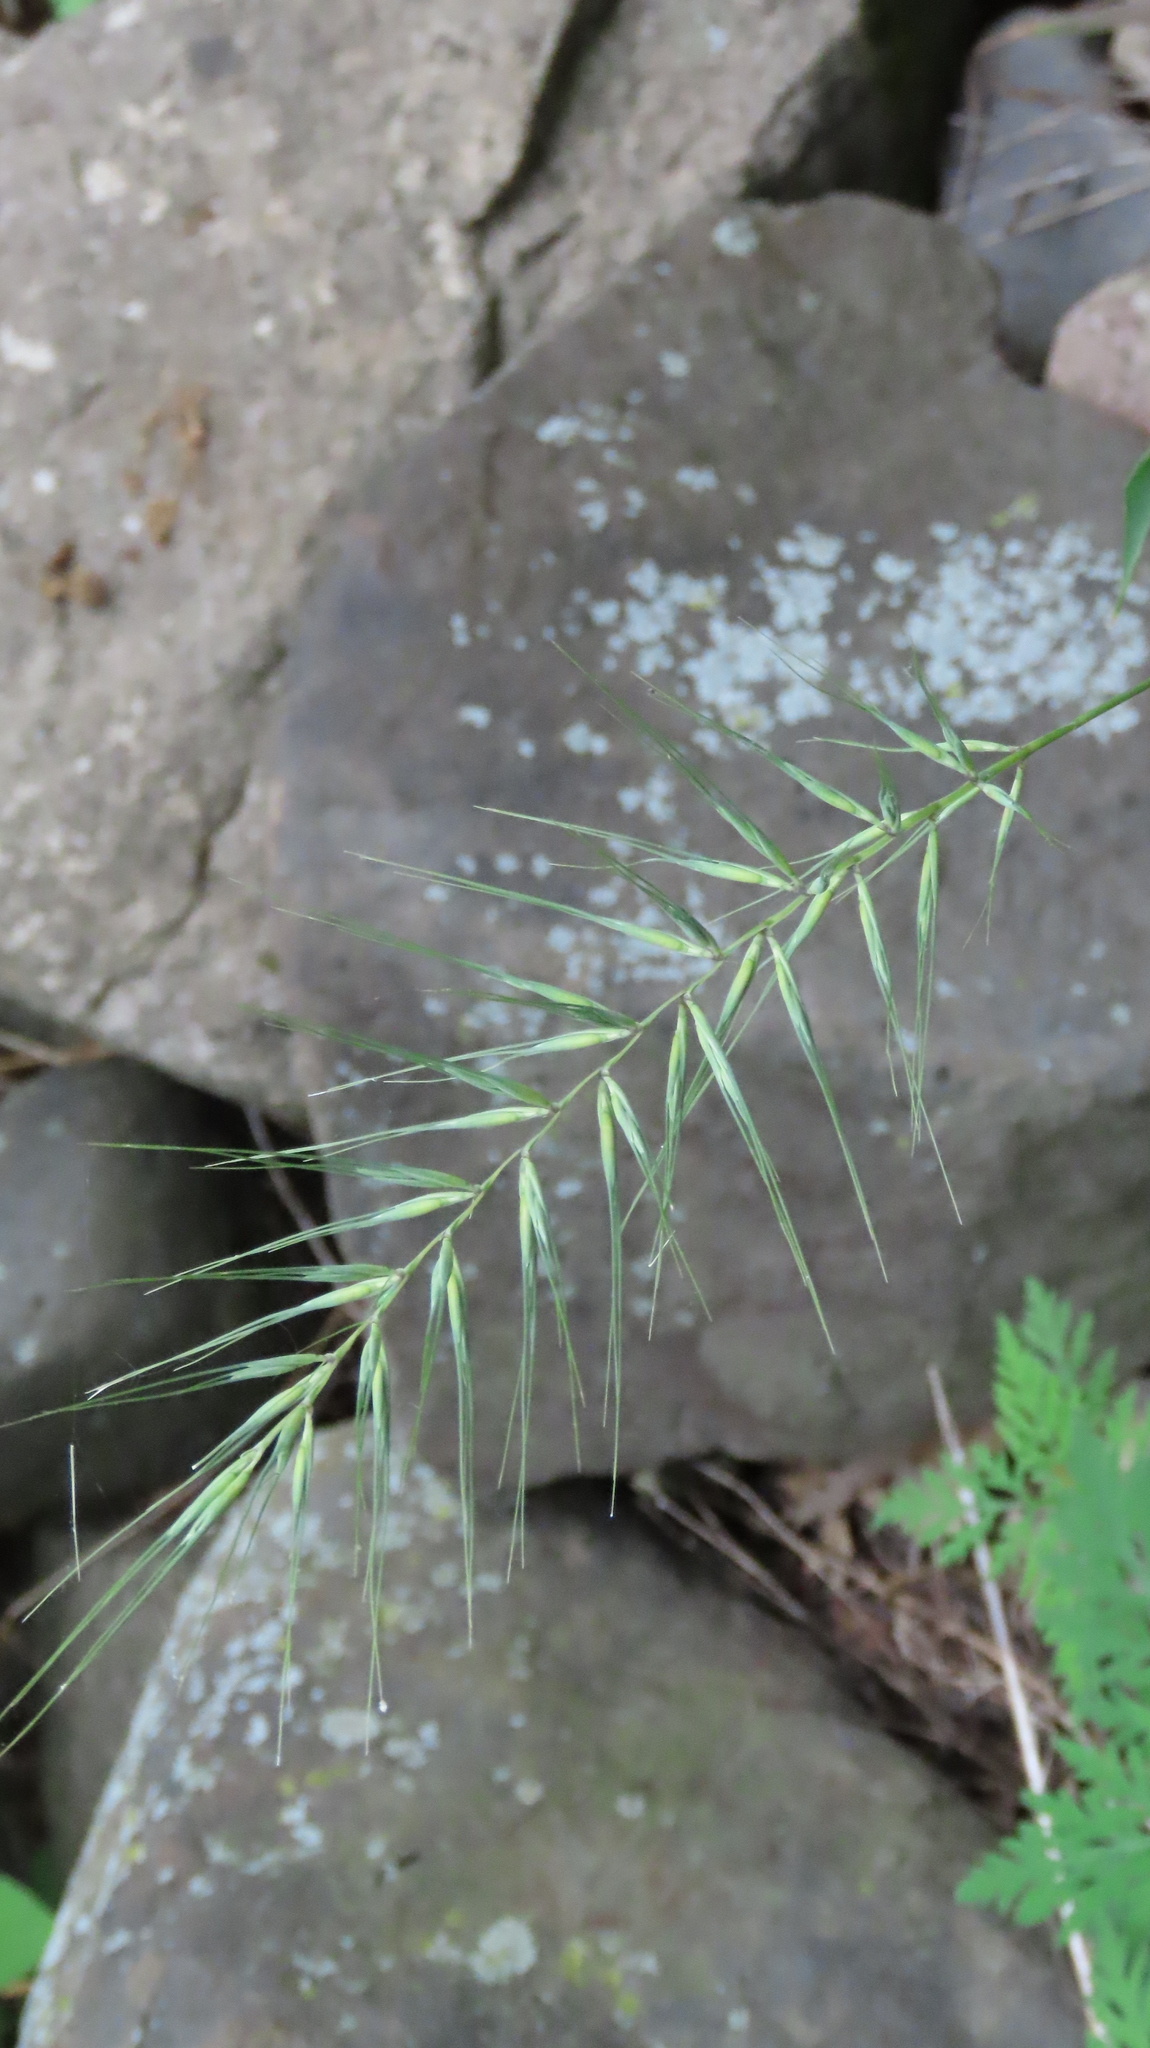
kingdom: Plantae
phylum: Tracheophyta
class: Liliopsida
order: Poales
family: Poaceae
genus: Elymus
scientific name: Elymus hystrix
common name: Bottlebrush grass
